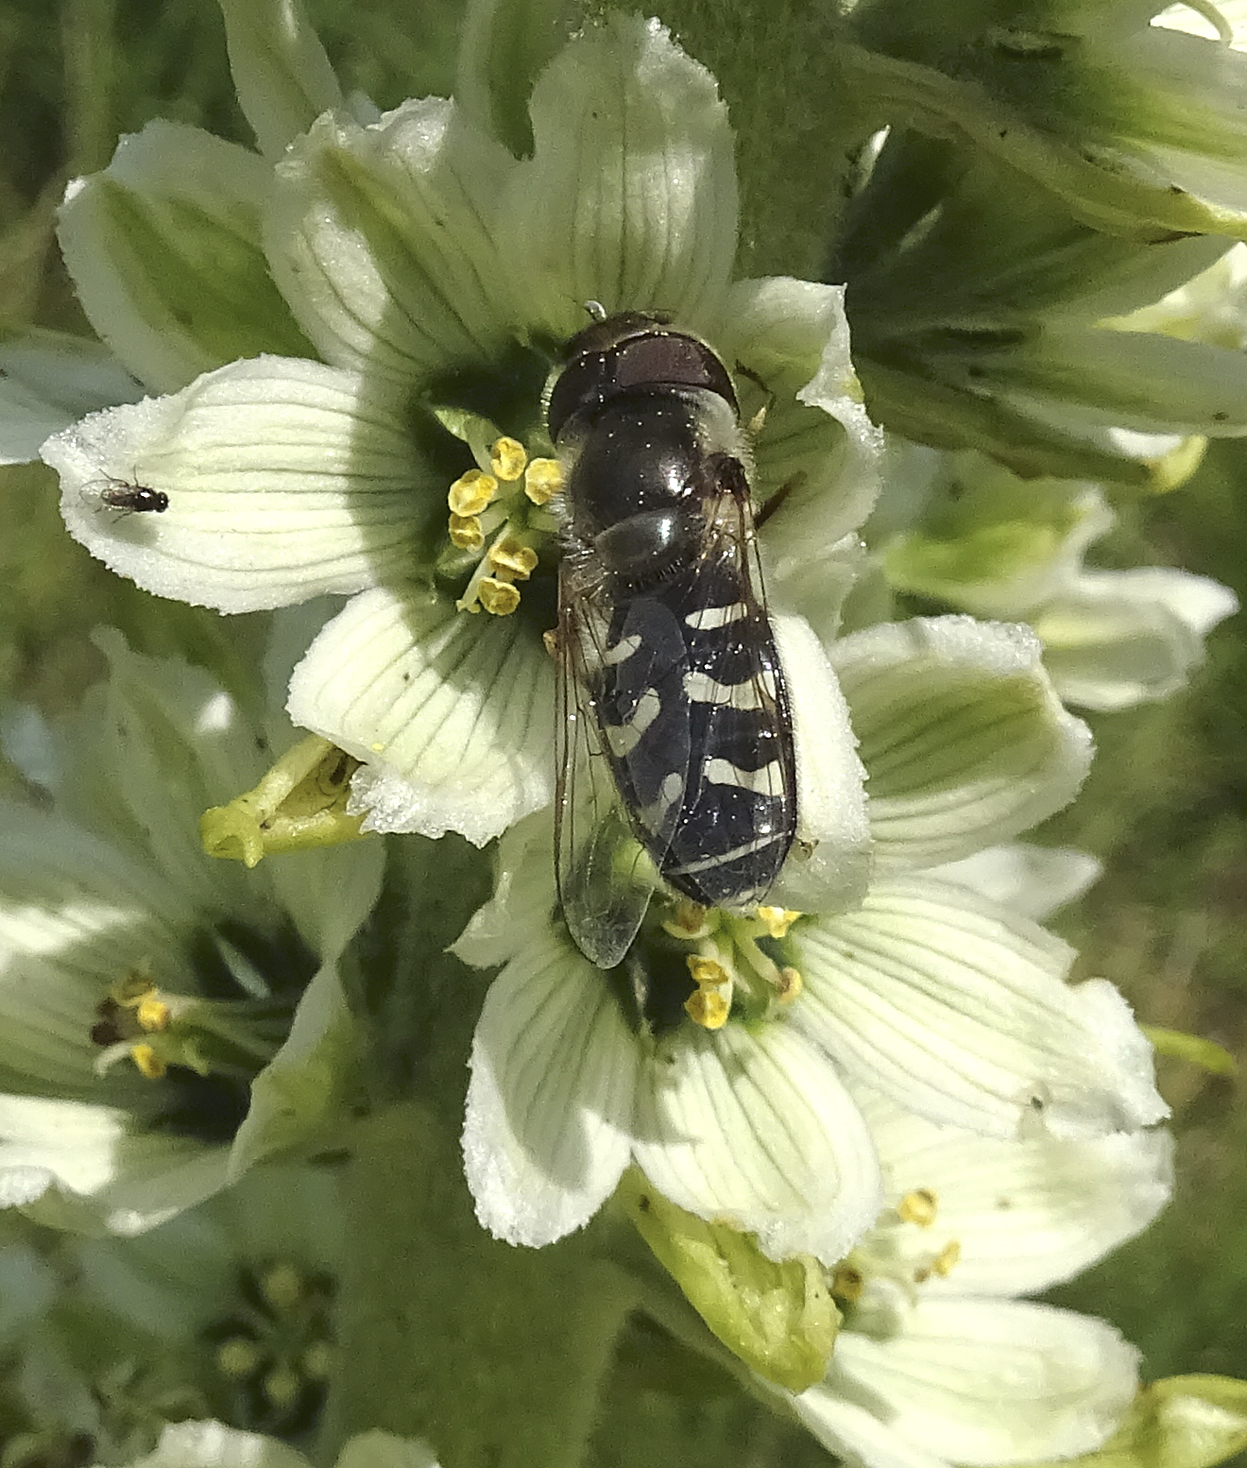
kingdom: Animalia
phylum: Arthropoda
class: Insecta
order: Diptera
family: Syrphidae
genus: Scaeva
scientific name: Scaeva affinis
